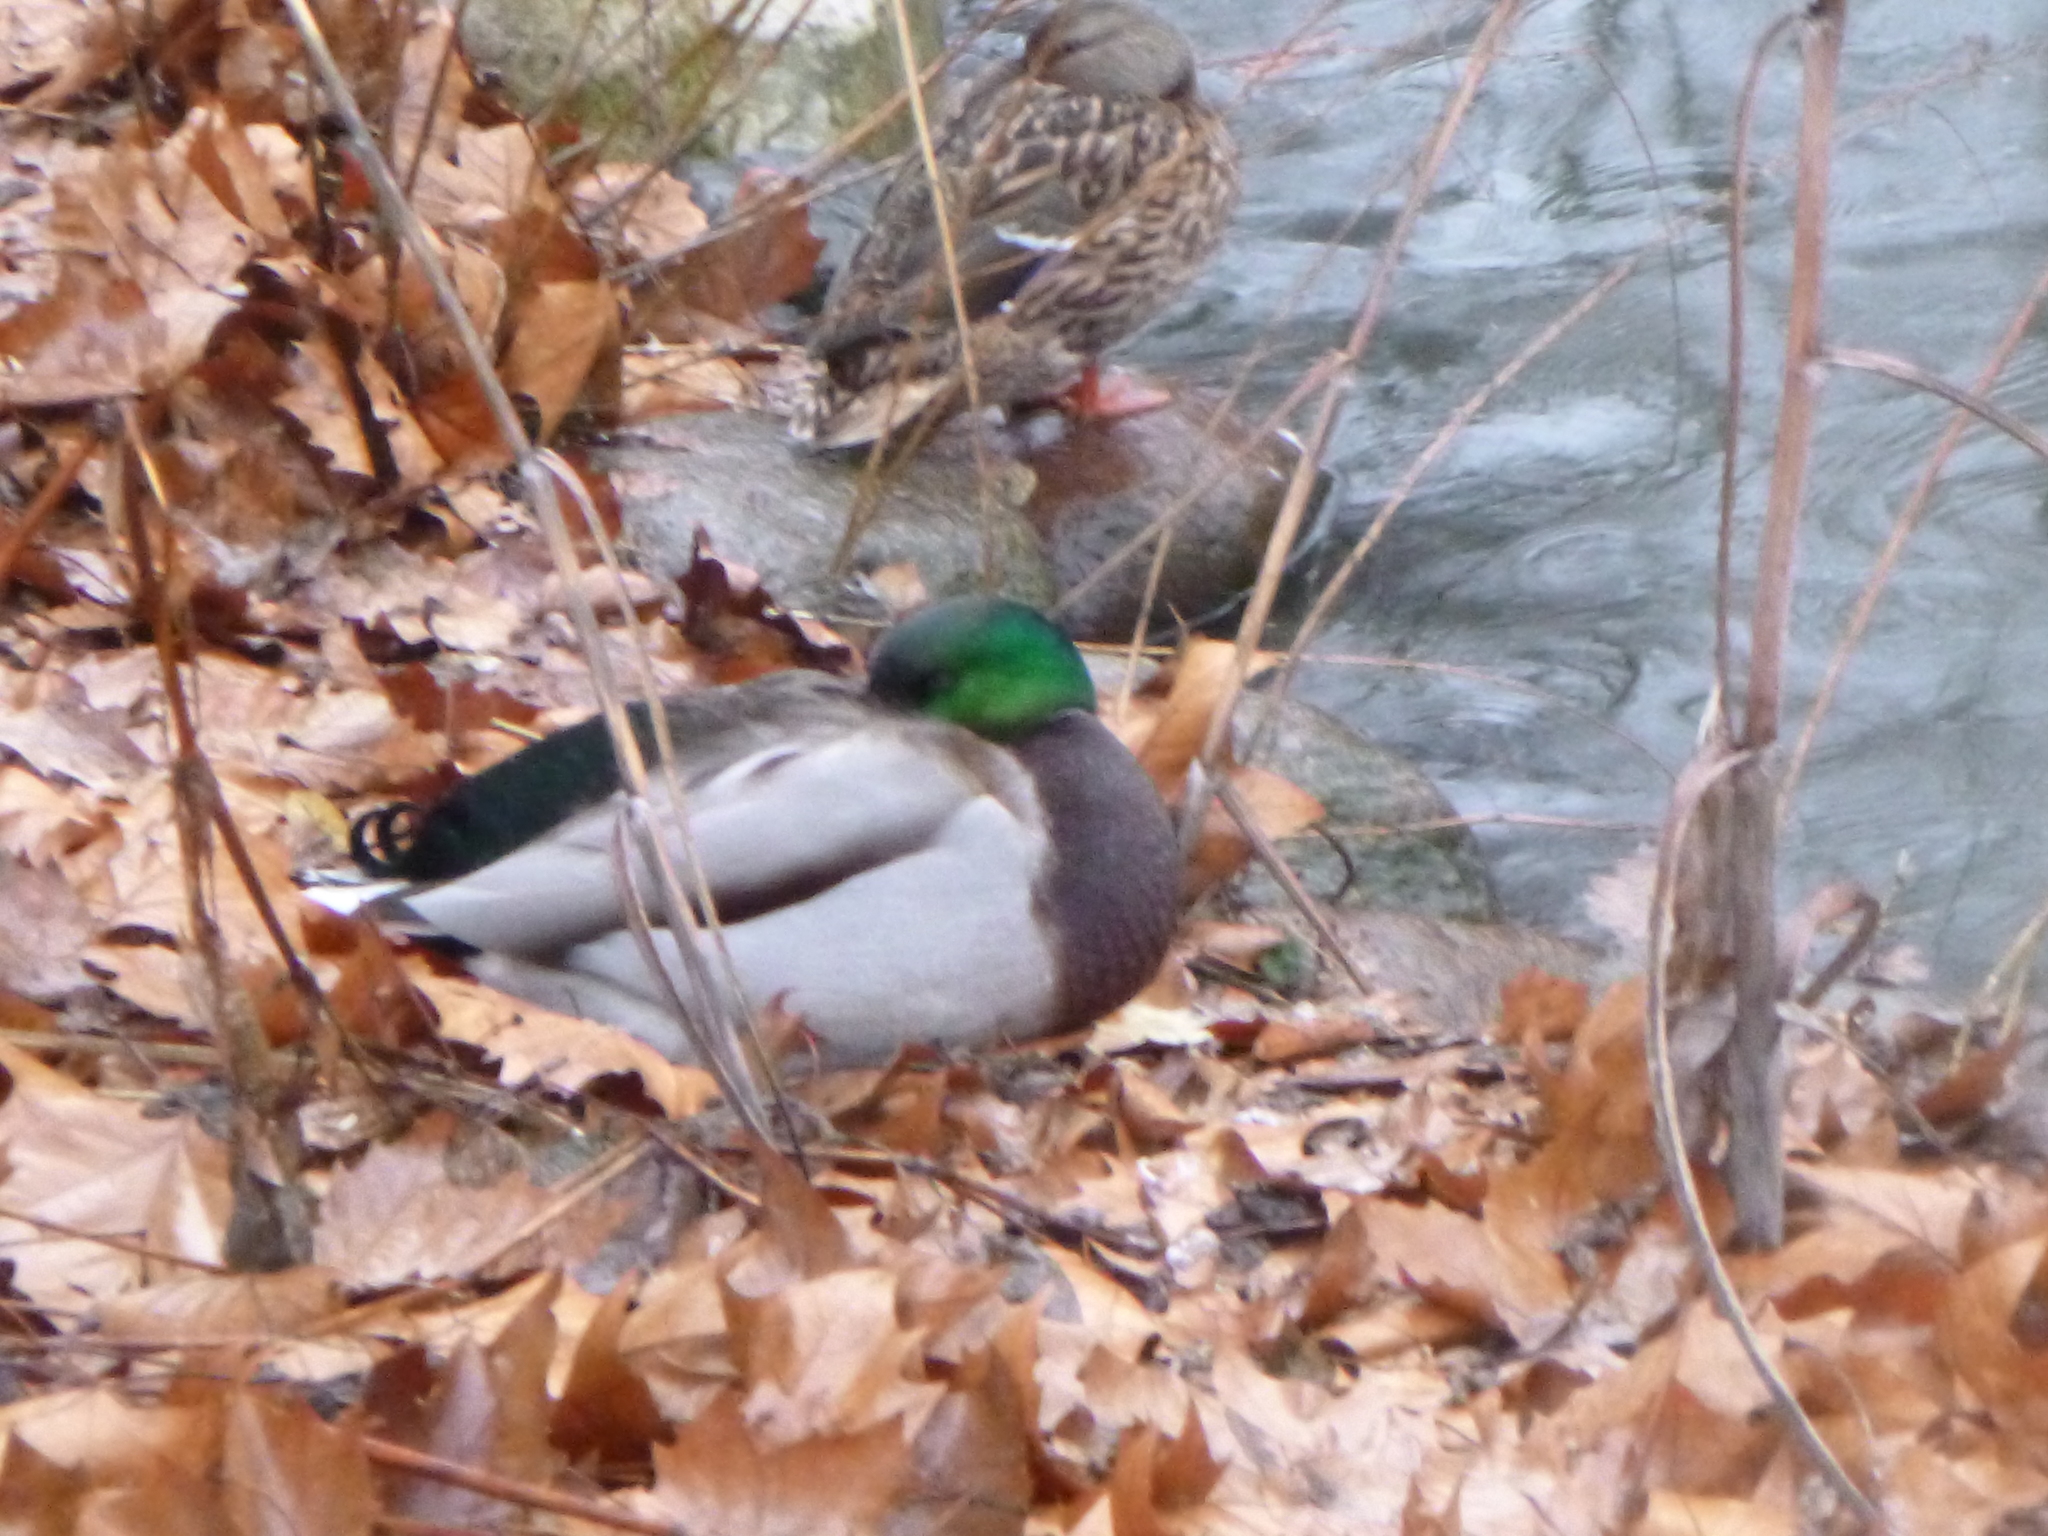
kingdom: Animalia
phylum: Chordata
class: Aves
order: Anseriformes
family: Anatidae
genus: Anas
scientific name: Anas platyrhynchos
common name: Mallard
